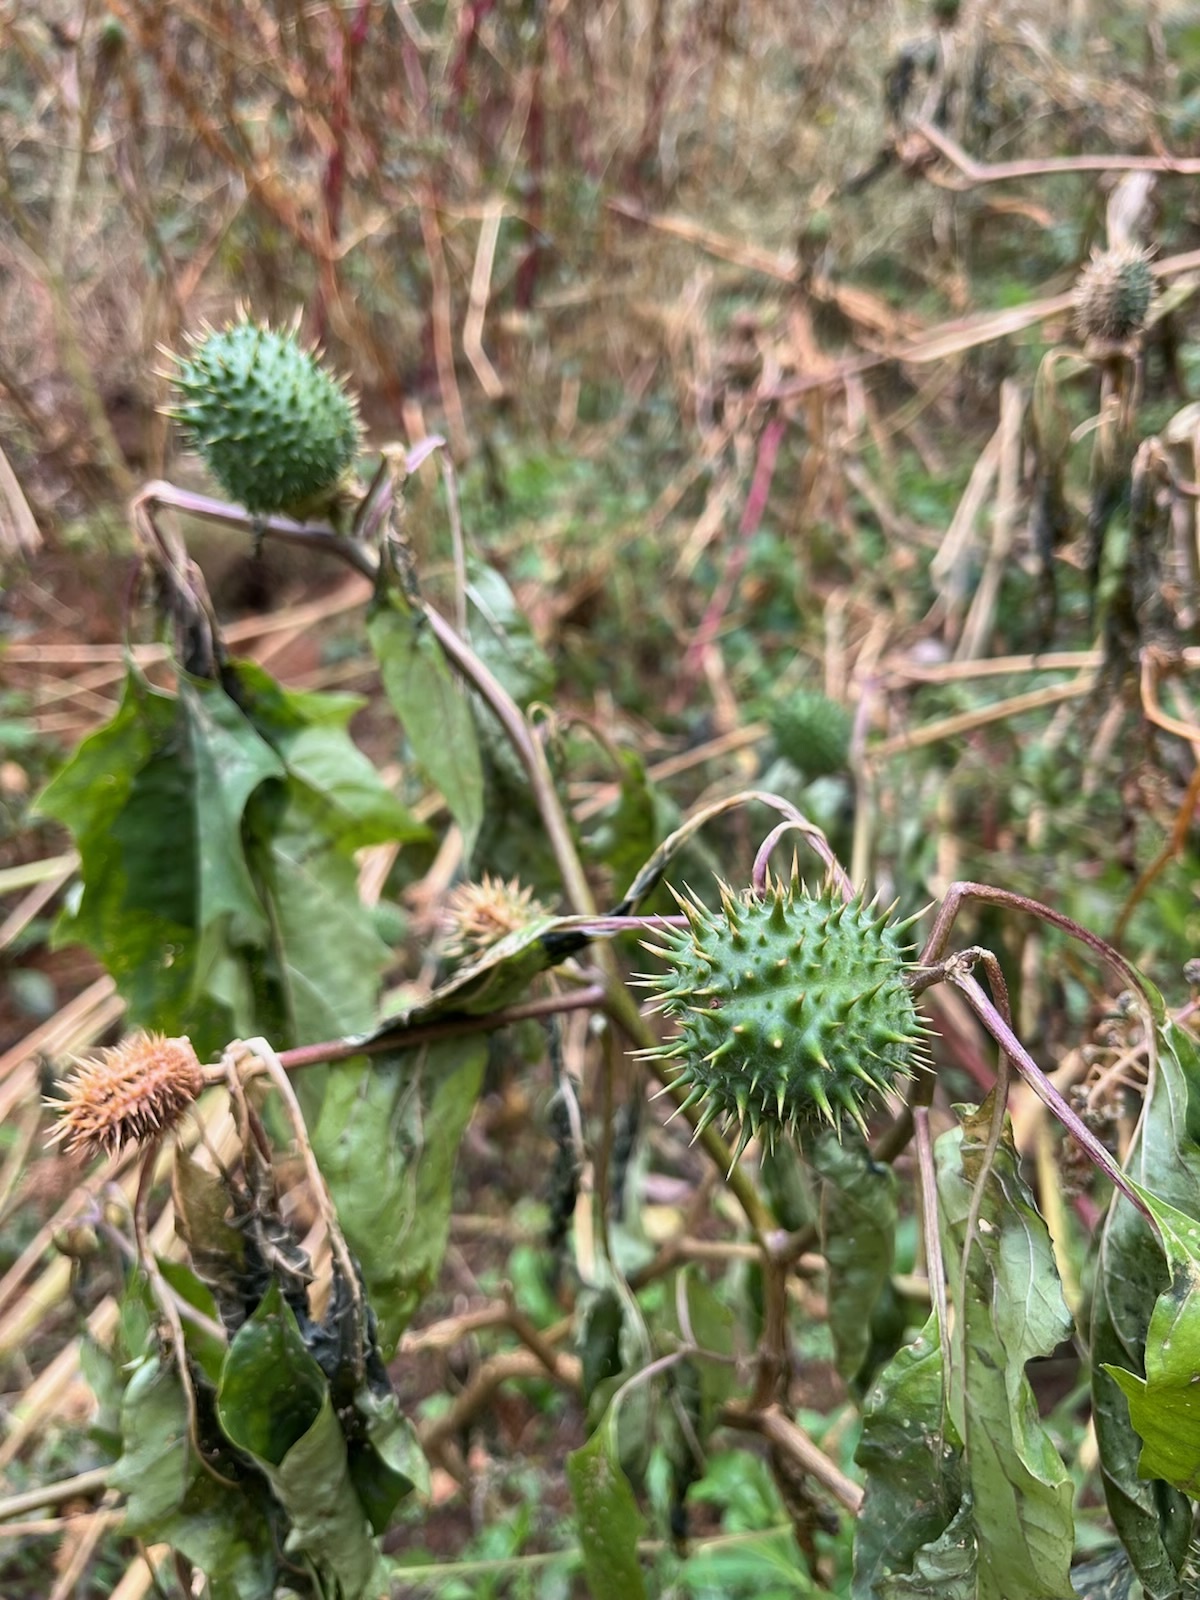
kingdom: Plantae
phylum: Tracheophyta
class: Magnoliopsida
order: Solanales
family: Solanaceae
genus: Datura
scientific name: Datura stramonium
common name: Thorn-apple
